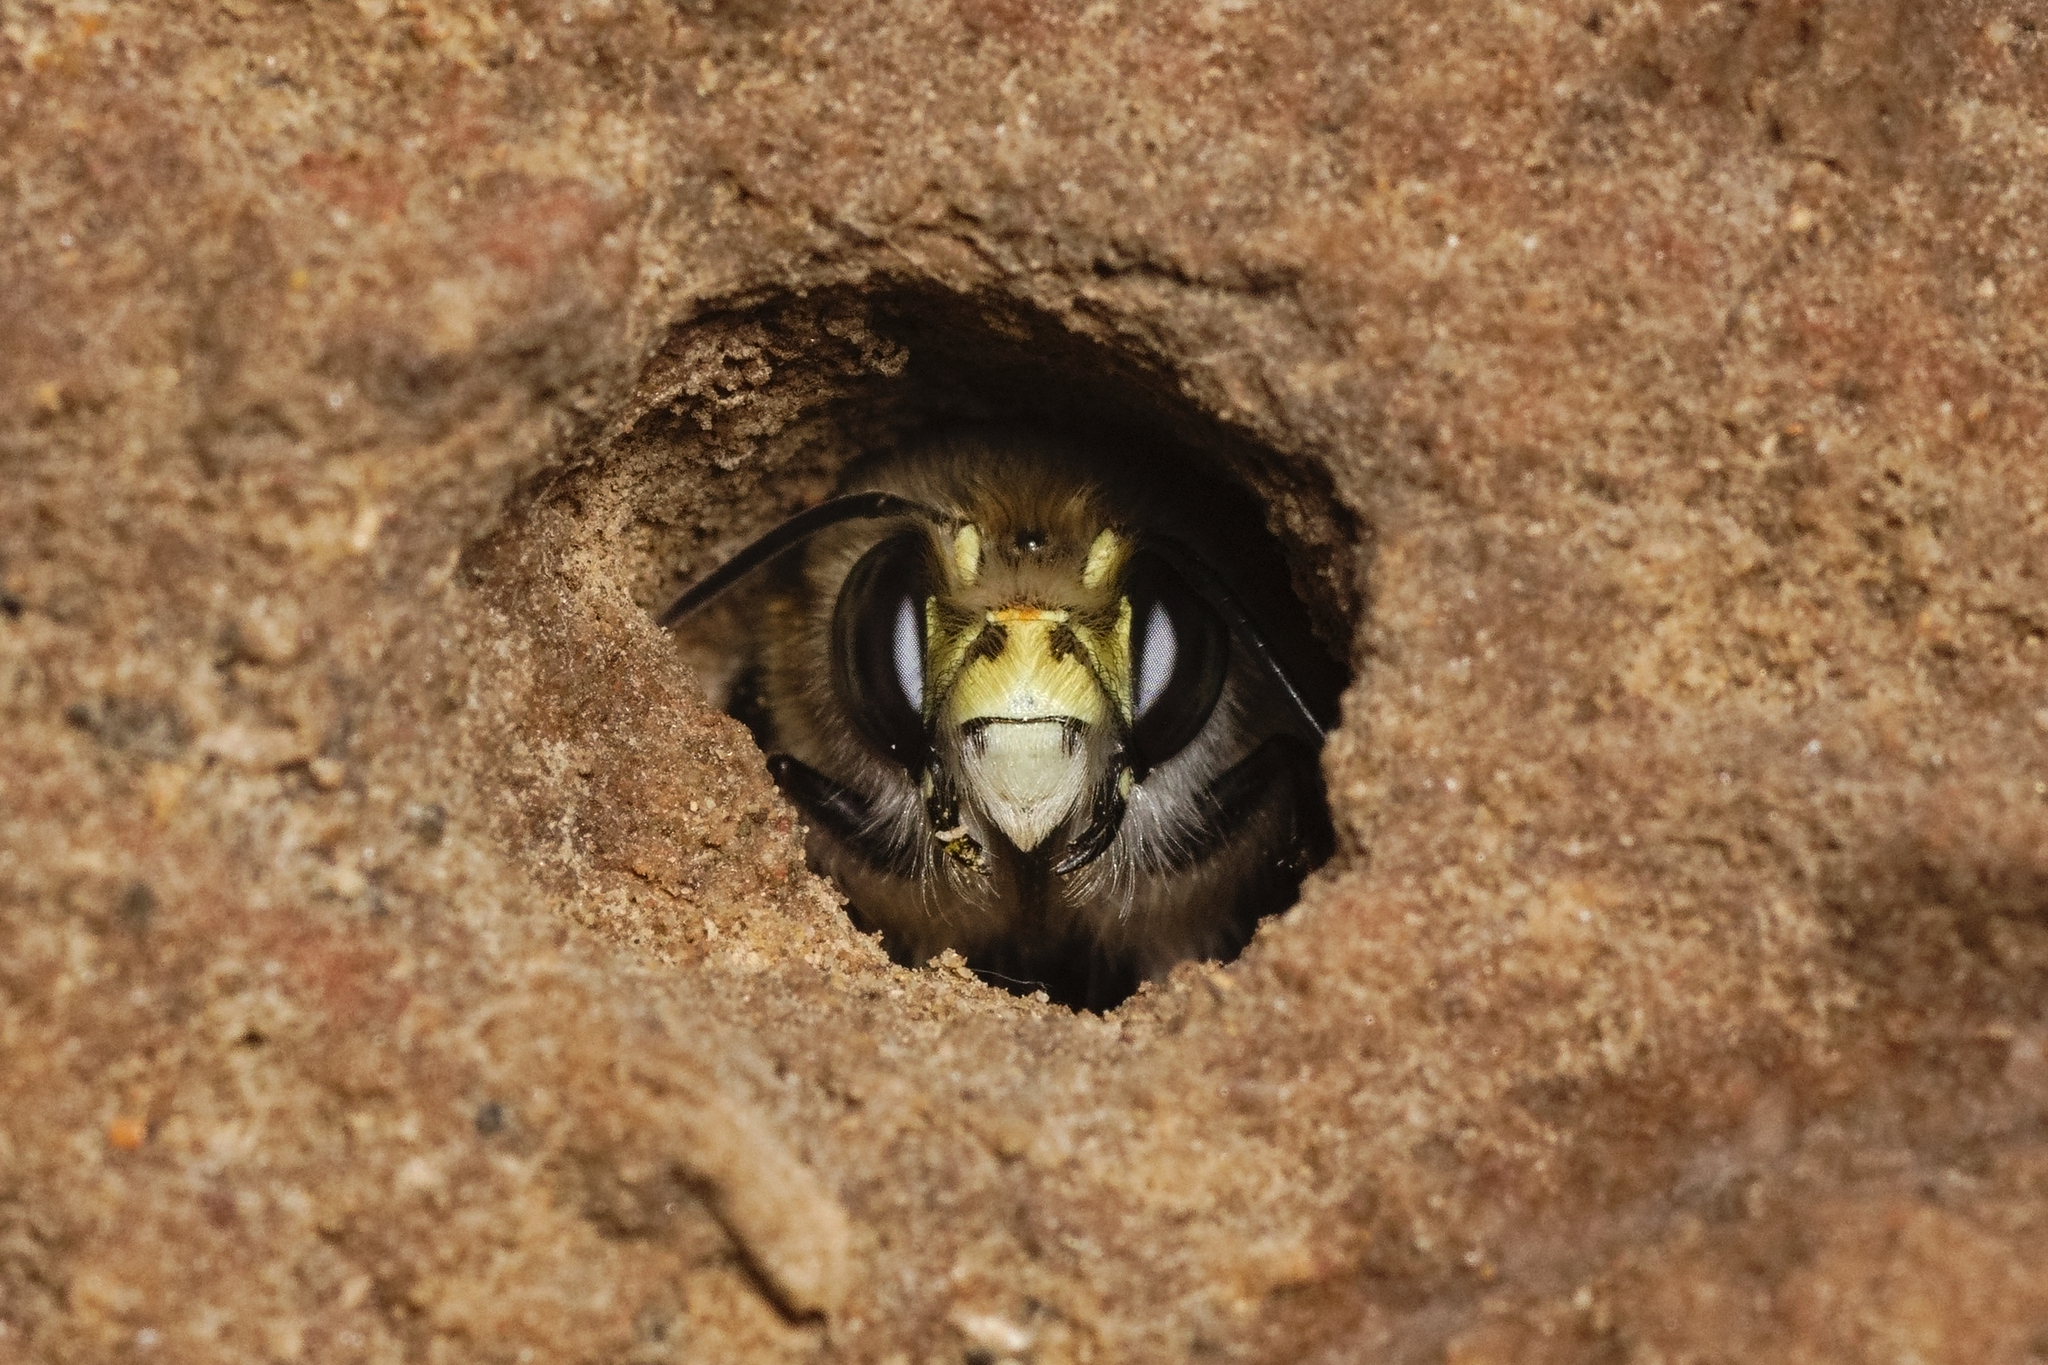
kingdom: Animalia
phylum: Arthropoda
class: Insecta
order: Hymenoptera
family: Apidae
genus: Anthophora
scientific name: Anthophora plumipes
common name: Hairy-footed flower bee
